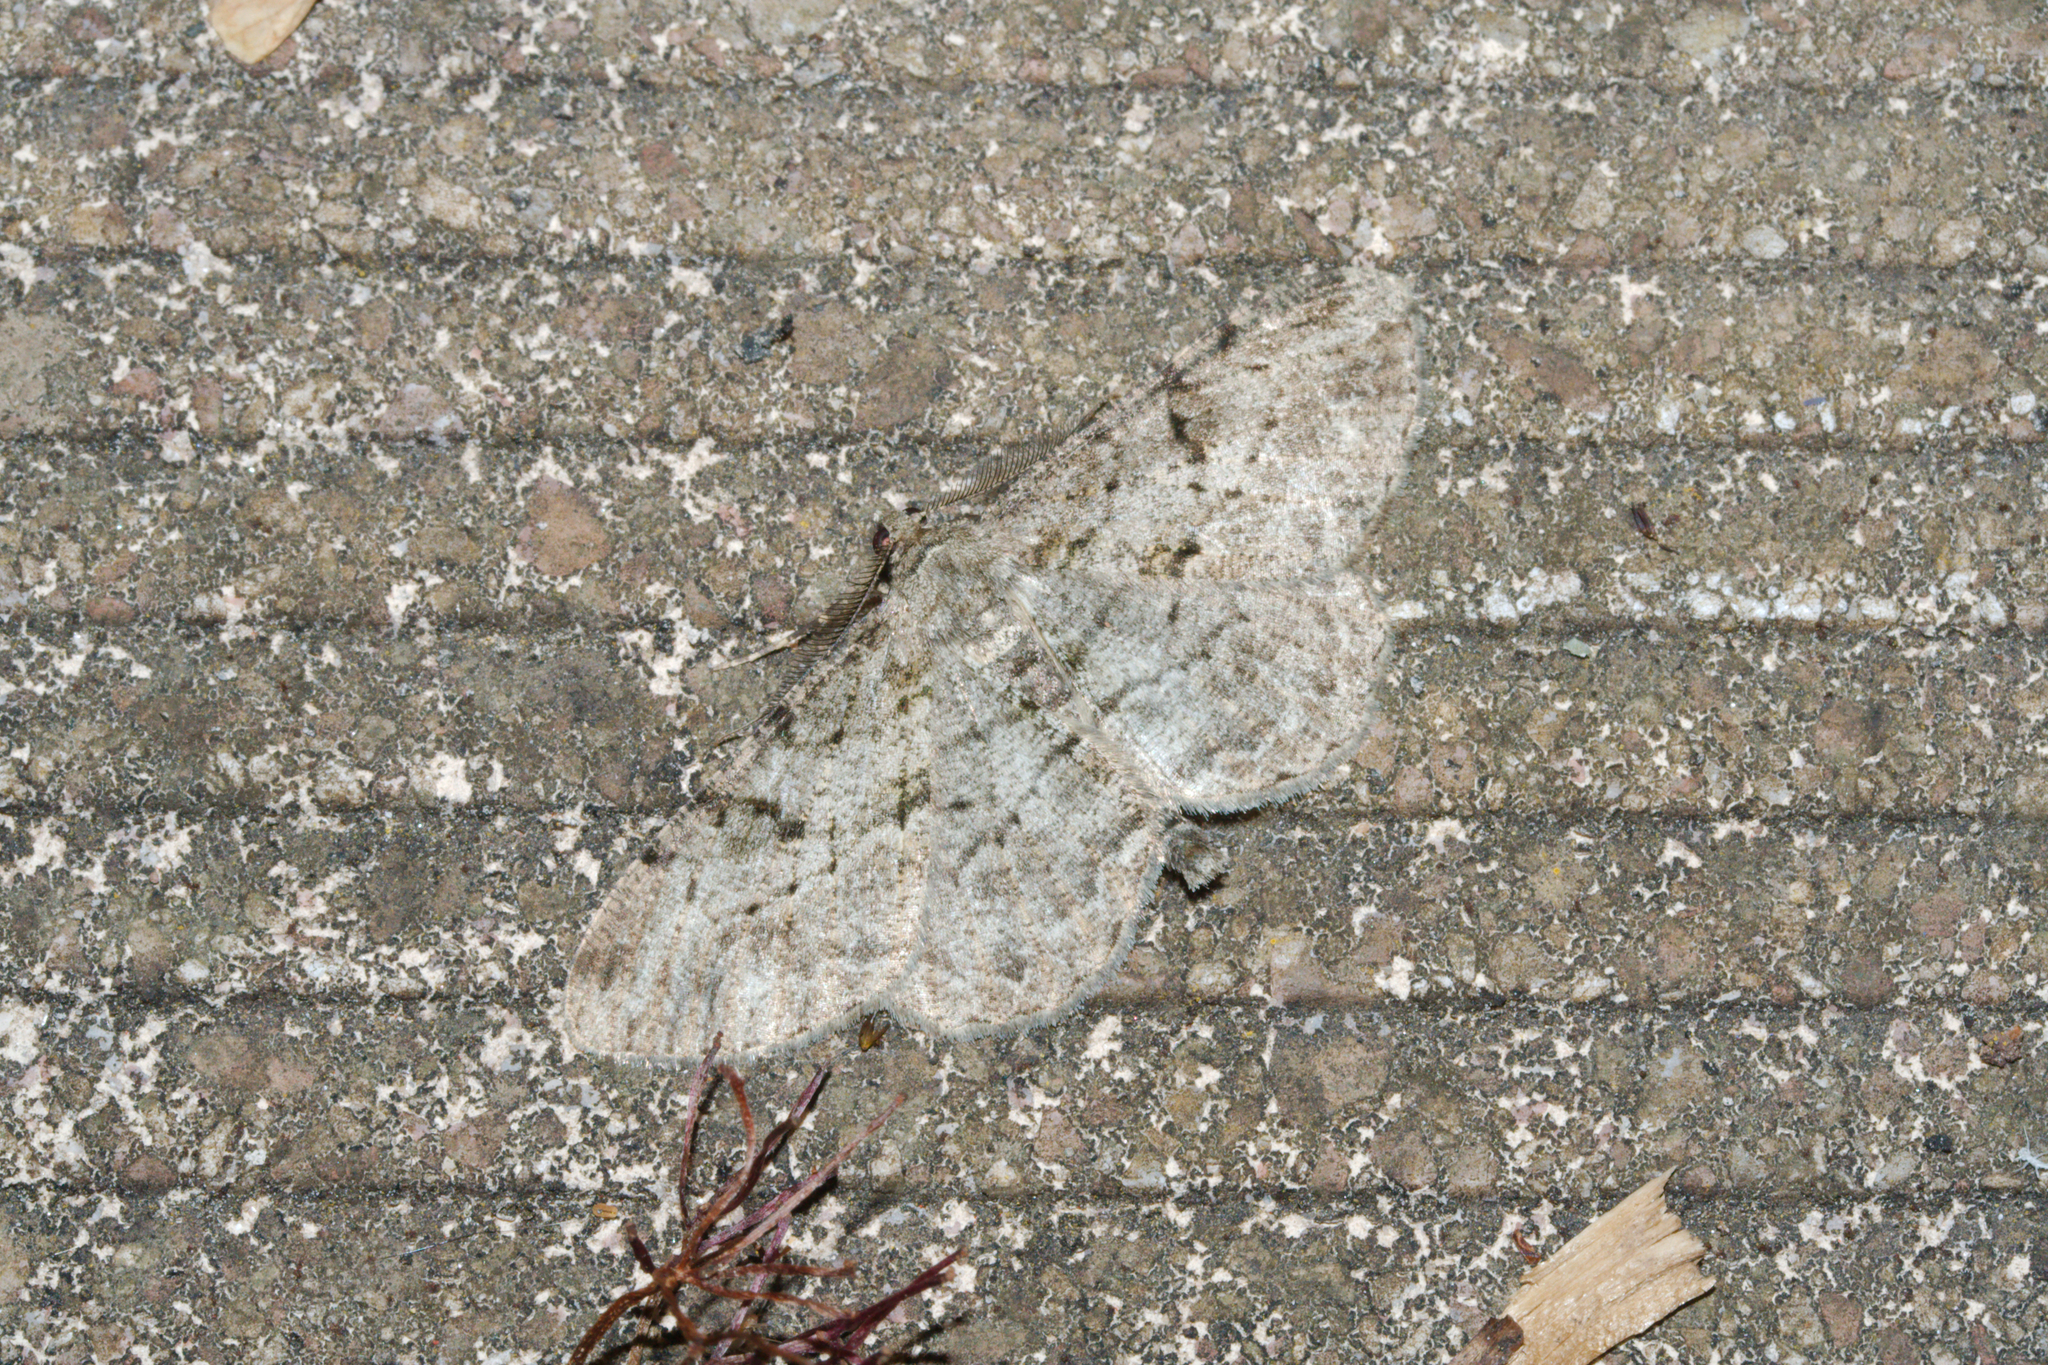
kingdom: Animalia
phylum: Arthropoda
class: Insecta
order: Lepidoptera
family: Geometridae
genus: Peribatodes
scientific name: Peribatodes rhomboidaria
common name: Willow beauty
